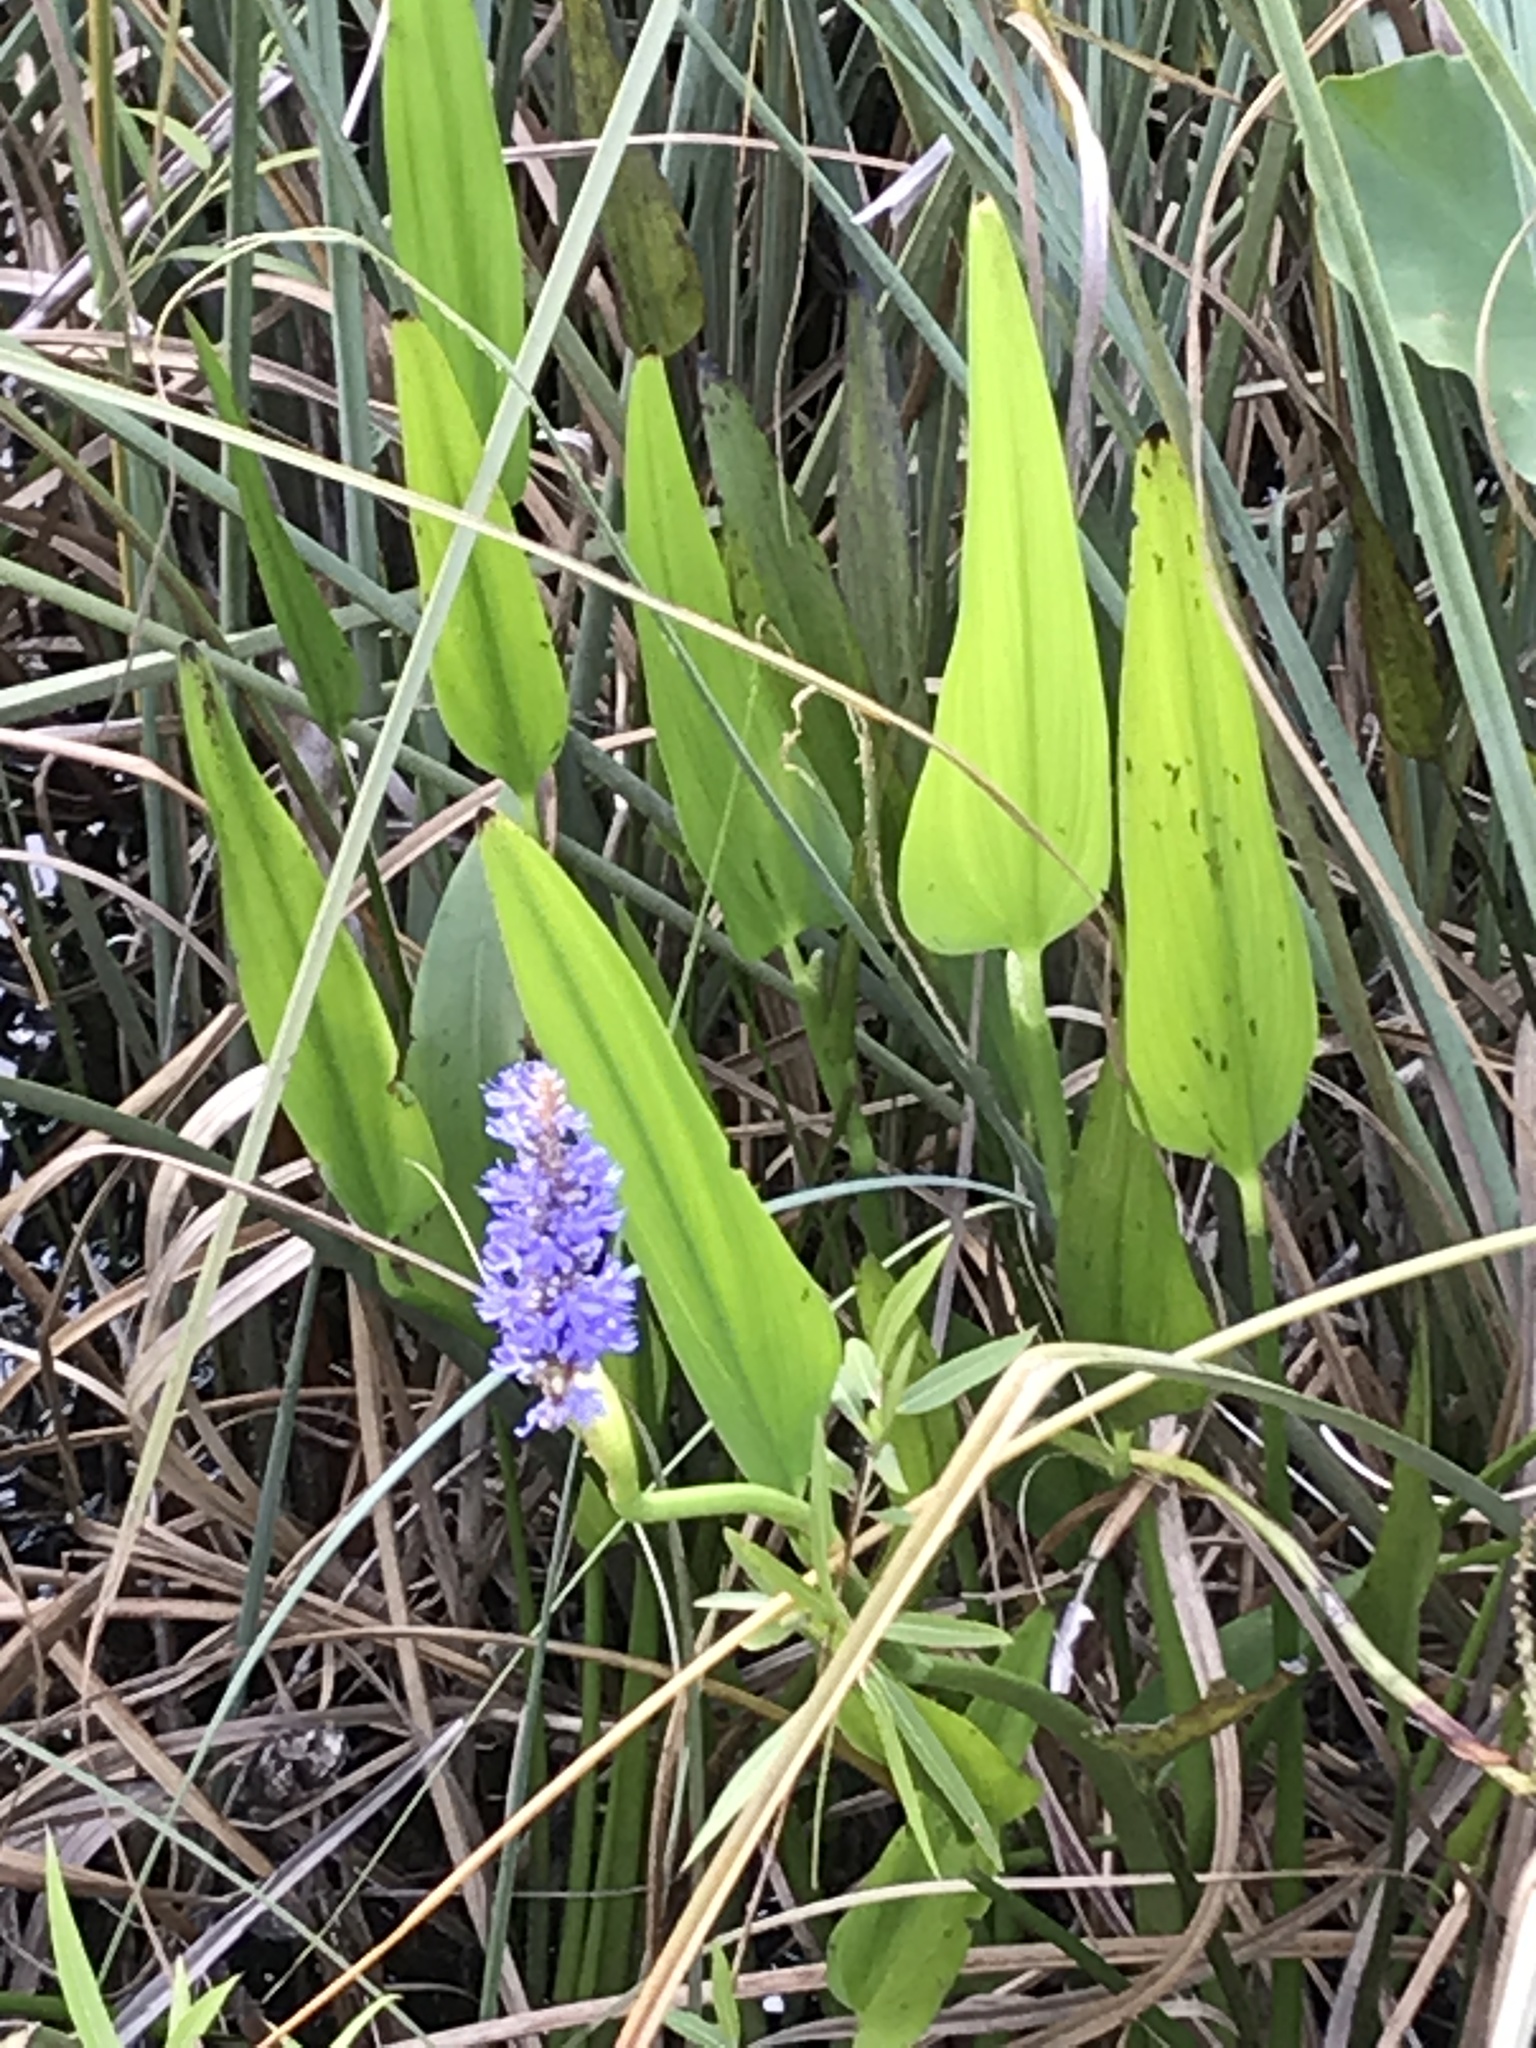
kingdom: Plantae
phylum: Tracheophyta
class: Liliopsida
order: Commelinales
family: Pontederiaceae
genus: Pontederia
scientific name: Pontederia cordata
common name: Pickerelweed
